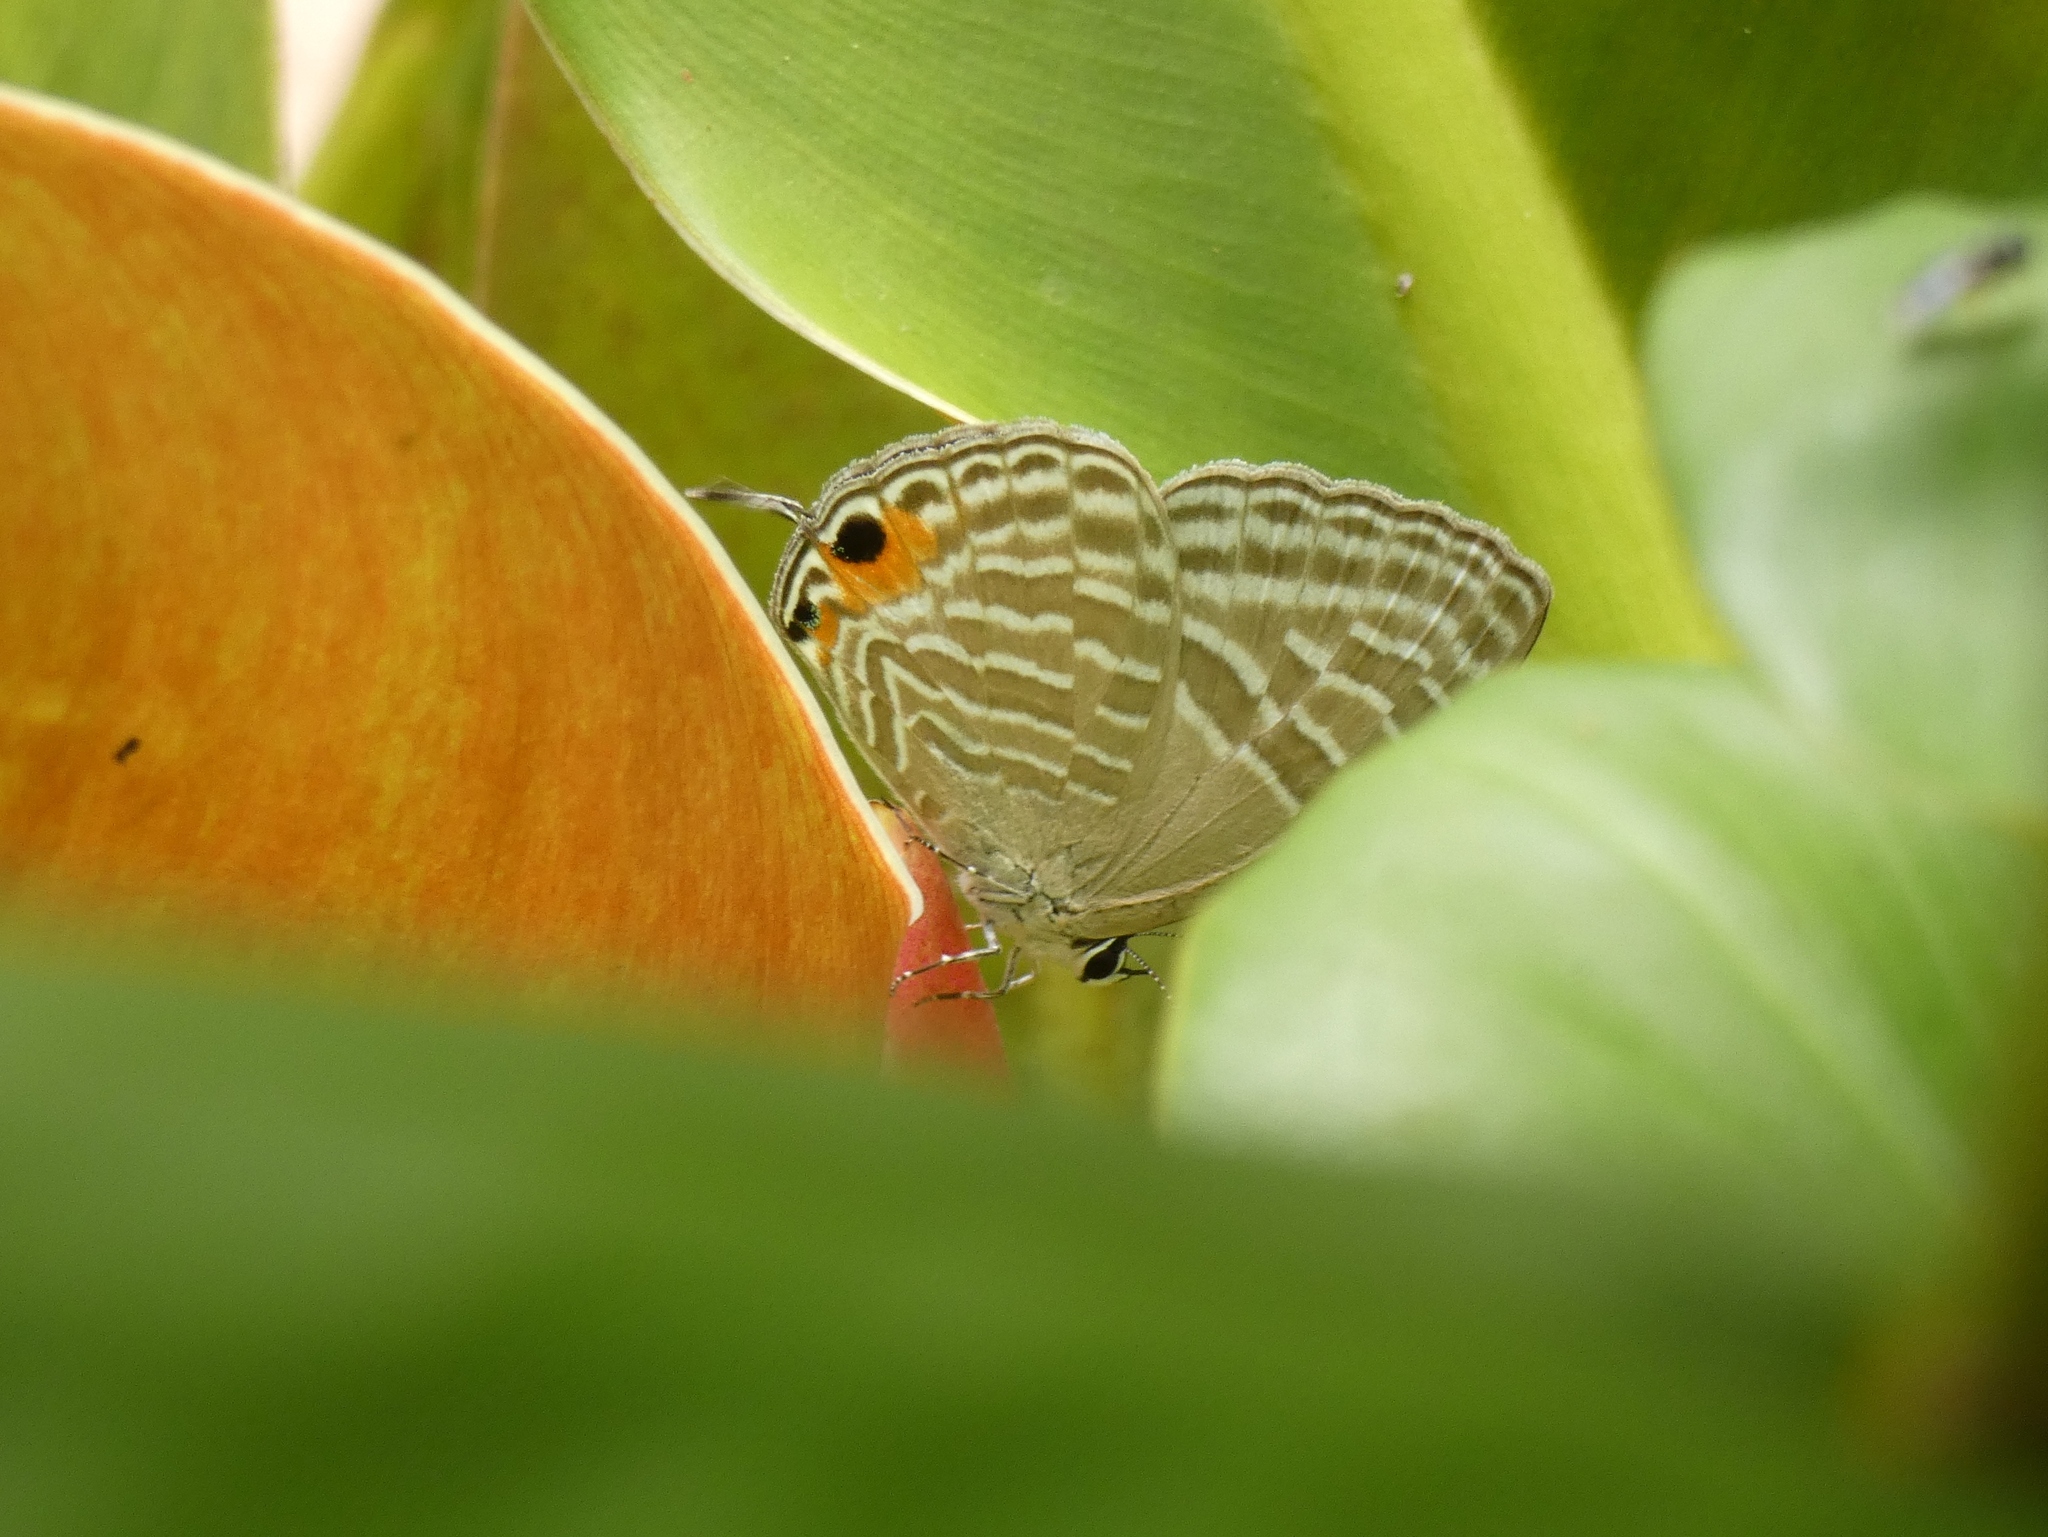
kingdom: Animalia
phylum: Arthropoda
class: Insecta
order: Lepidoptera
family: Lycaenidae
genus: Jamides
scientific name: Jamides alecto
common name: Metallic cerulean
